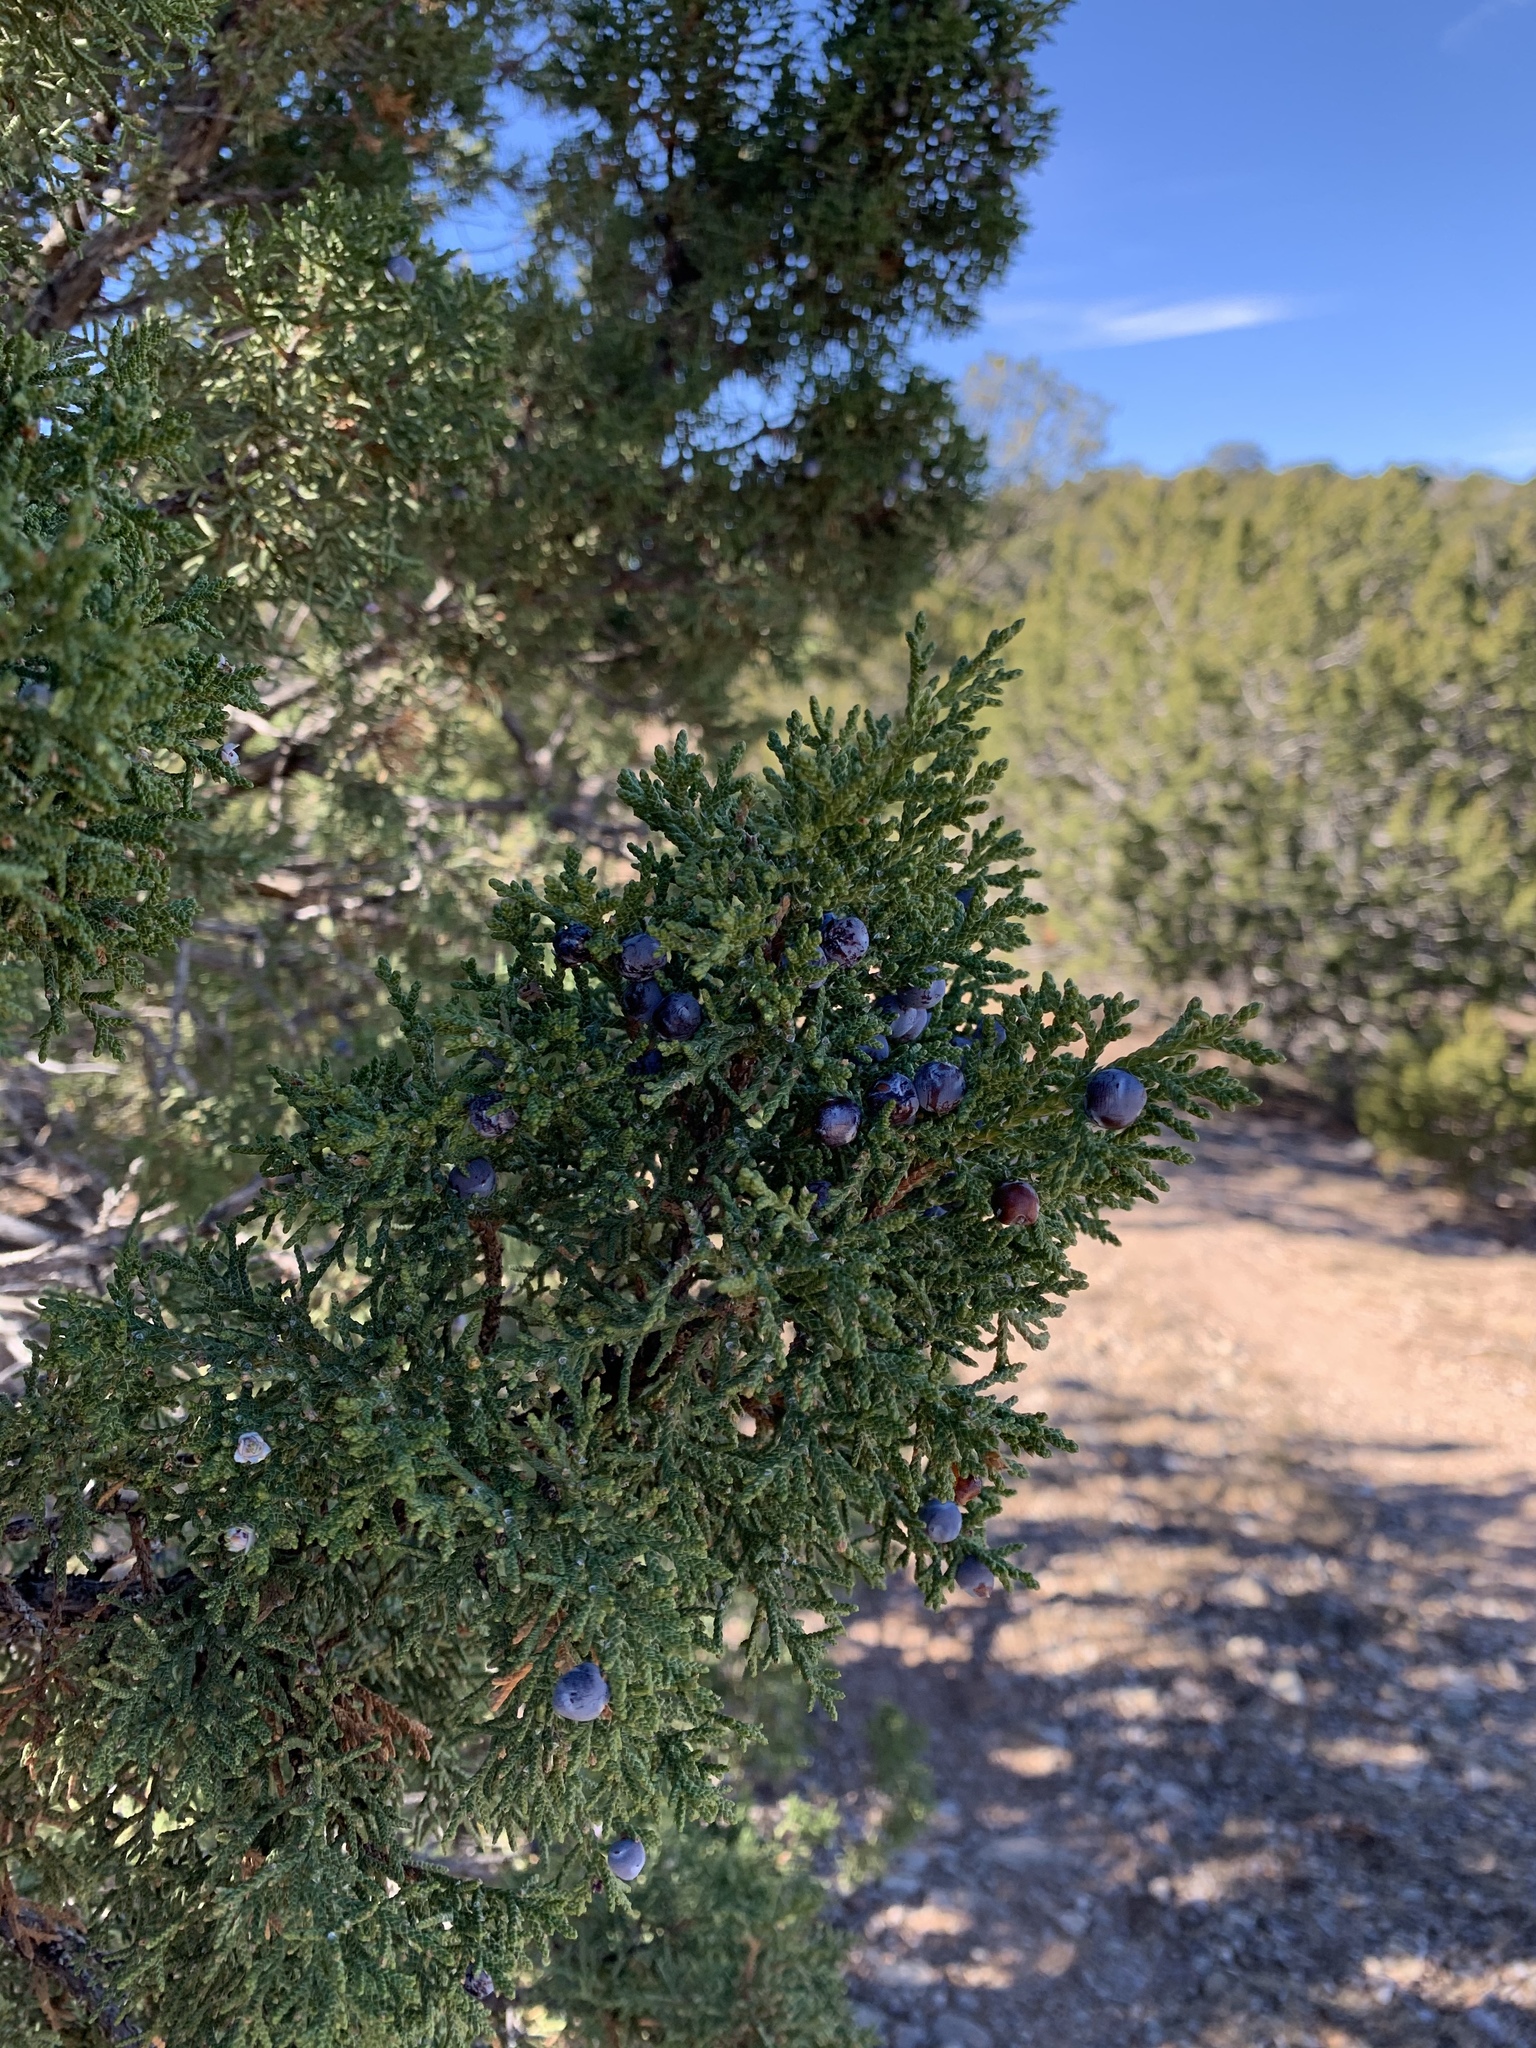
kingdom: Plantae
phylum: Tracheophyta
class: Pinopsida
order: Pinales
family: Cupressaceae
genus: Juniperus
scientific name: Juniperus monosperma
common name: One-seed juniper
